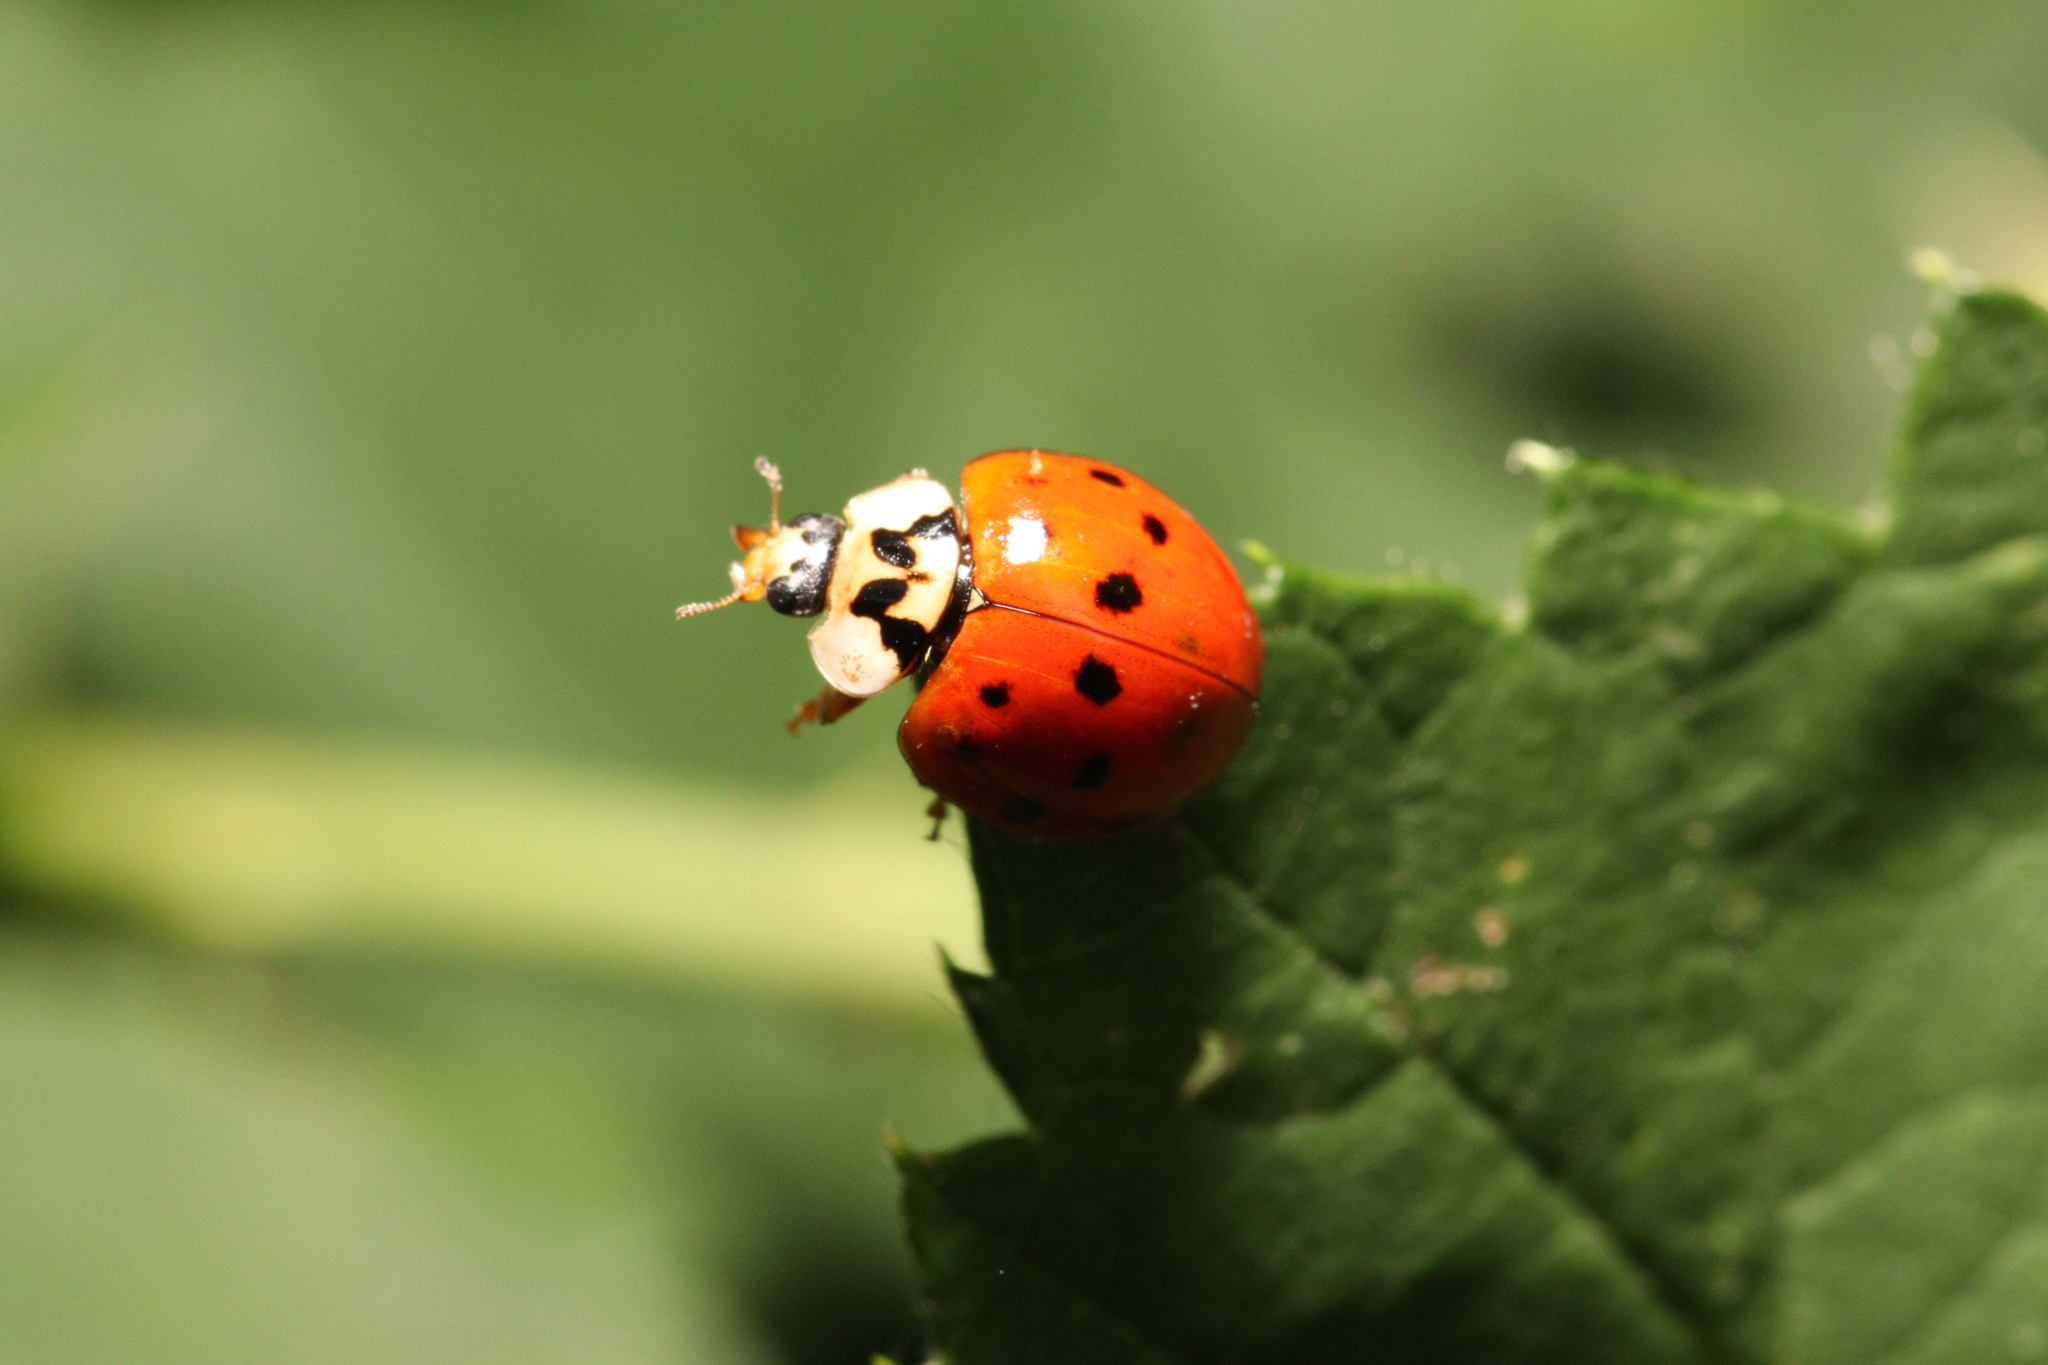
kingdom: Animalia
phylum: Arthropoda
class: Insecta
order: Coleoptera
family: Coccinellidae
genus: Harmonia
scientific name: Harmonia axyridis
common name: Harlequin ladybird
